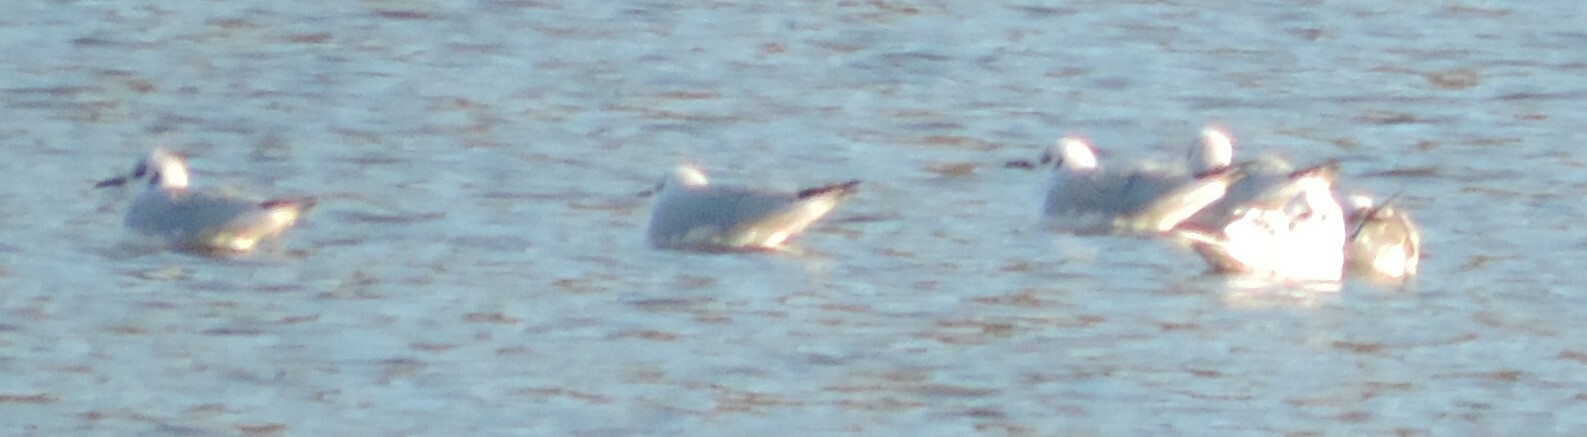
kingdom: Animalia
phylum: Chordata
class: Aves
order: Charadriiformes
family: Laridae
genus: Chroicocephalus
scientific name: Chroicocephalus philadelphia
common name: Bonaparte's gull
